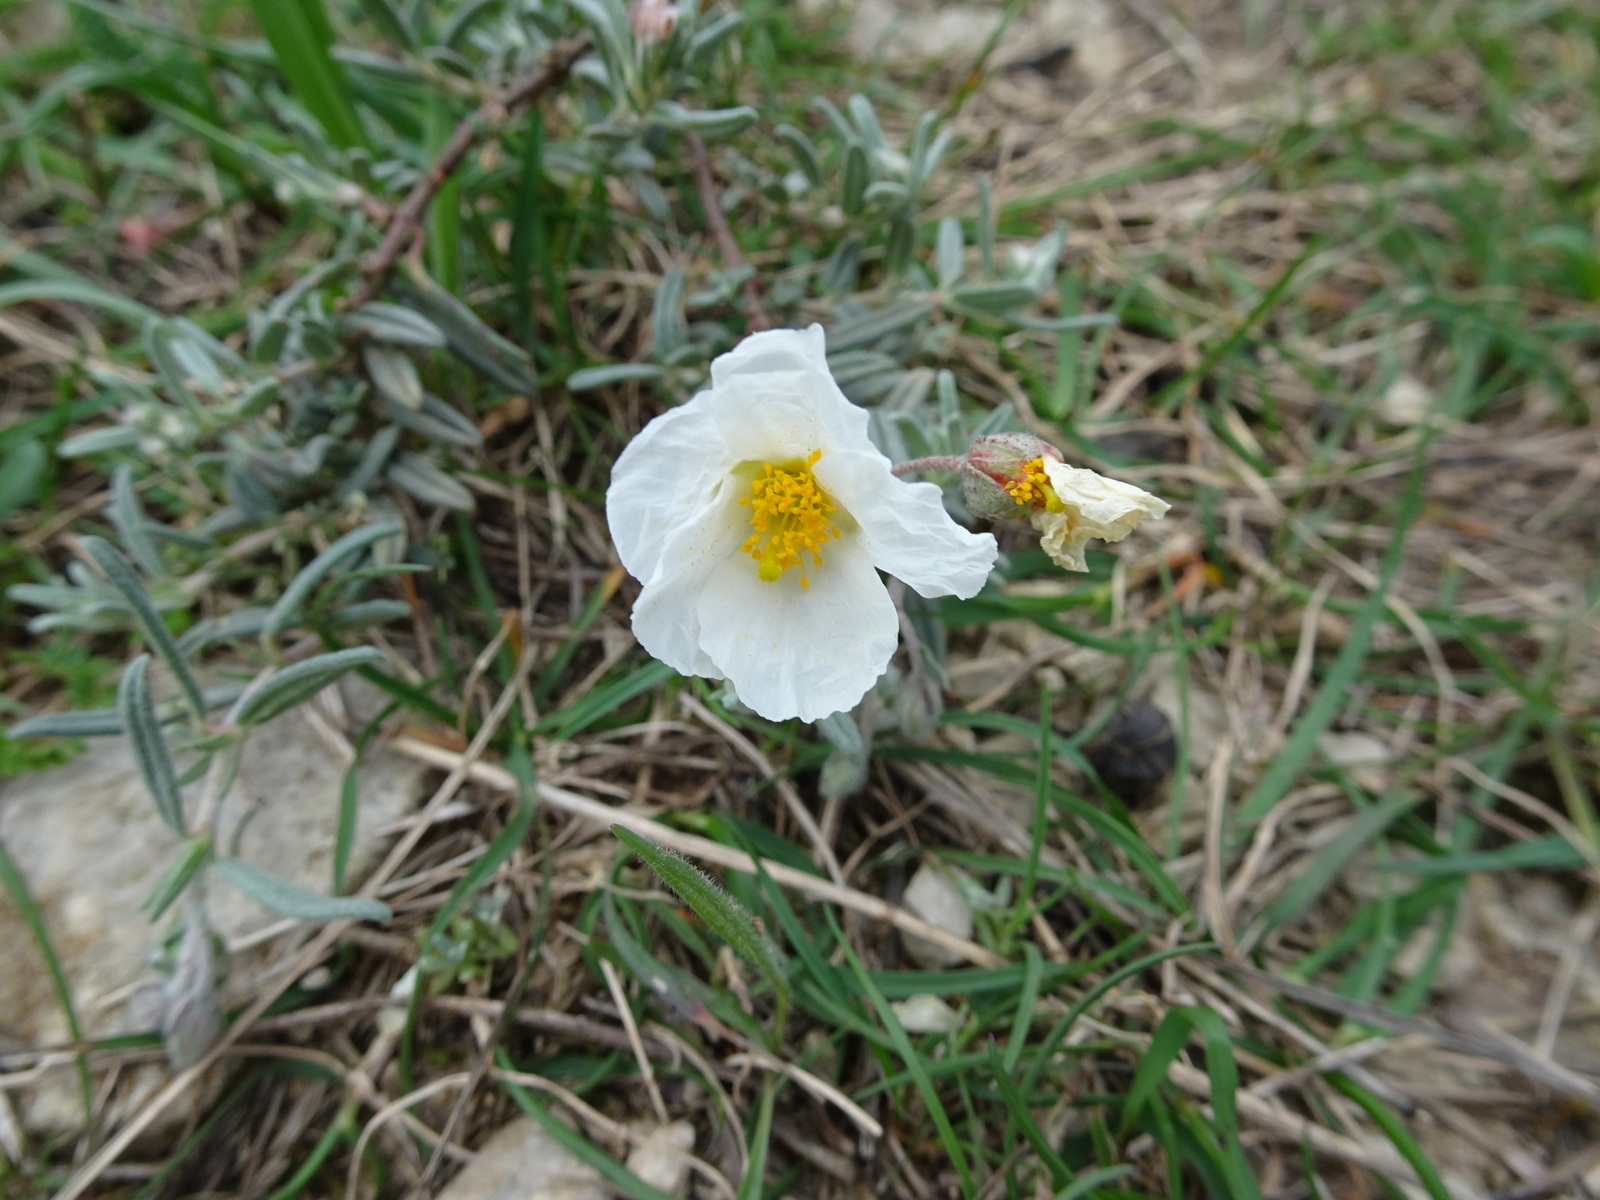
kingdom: Plantae
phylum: Tracheophyta
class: Magnoliopsida
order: Malvales
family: Cistaceae
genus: Helianthemum
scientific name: Helianthemum apenninum
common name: White rock-rose
